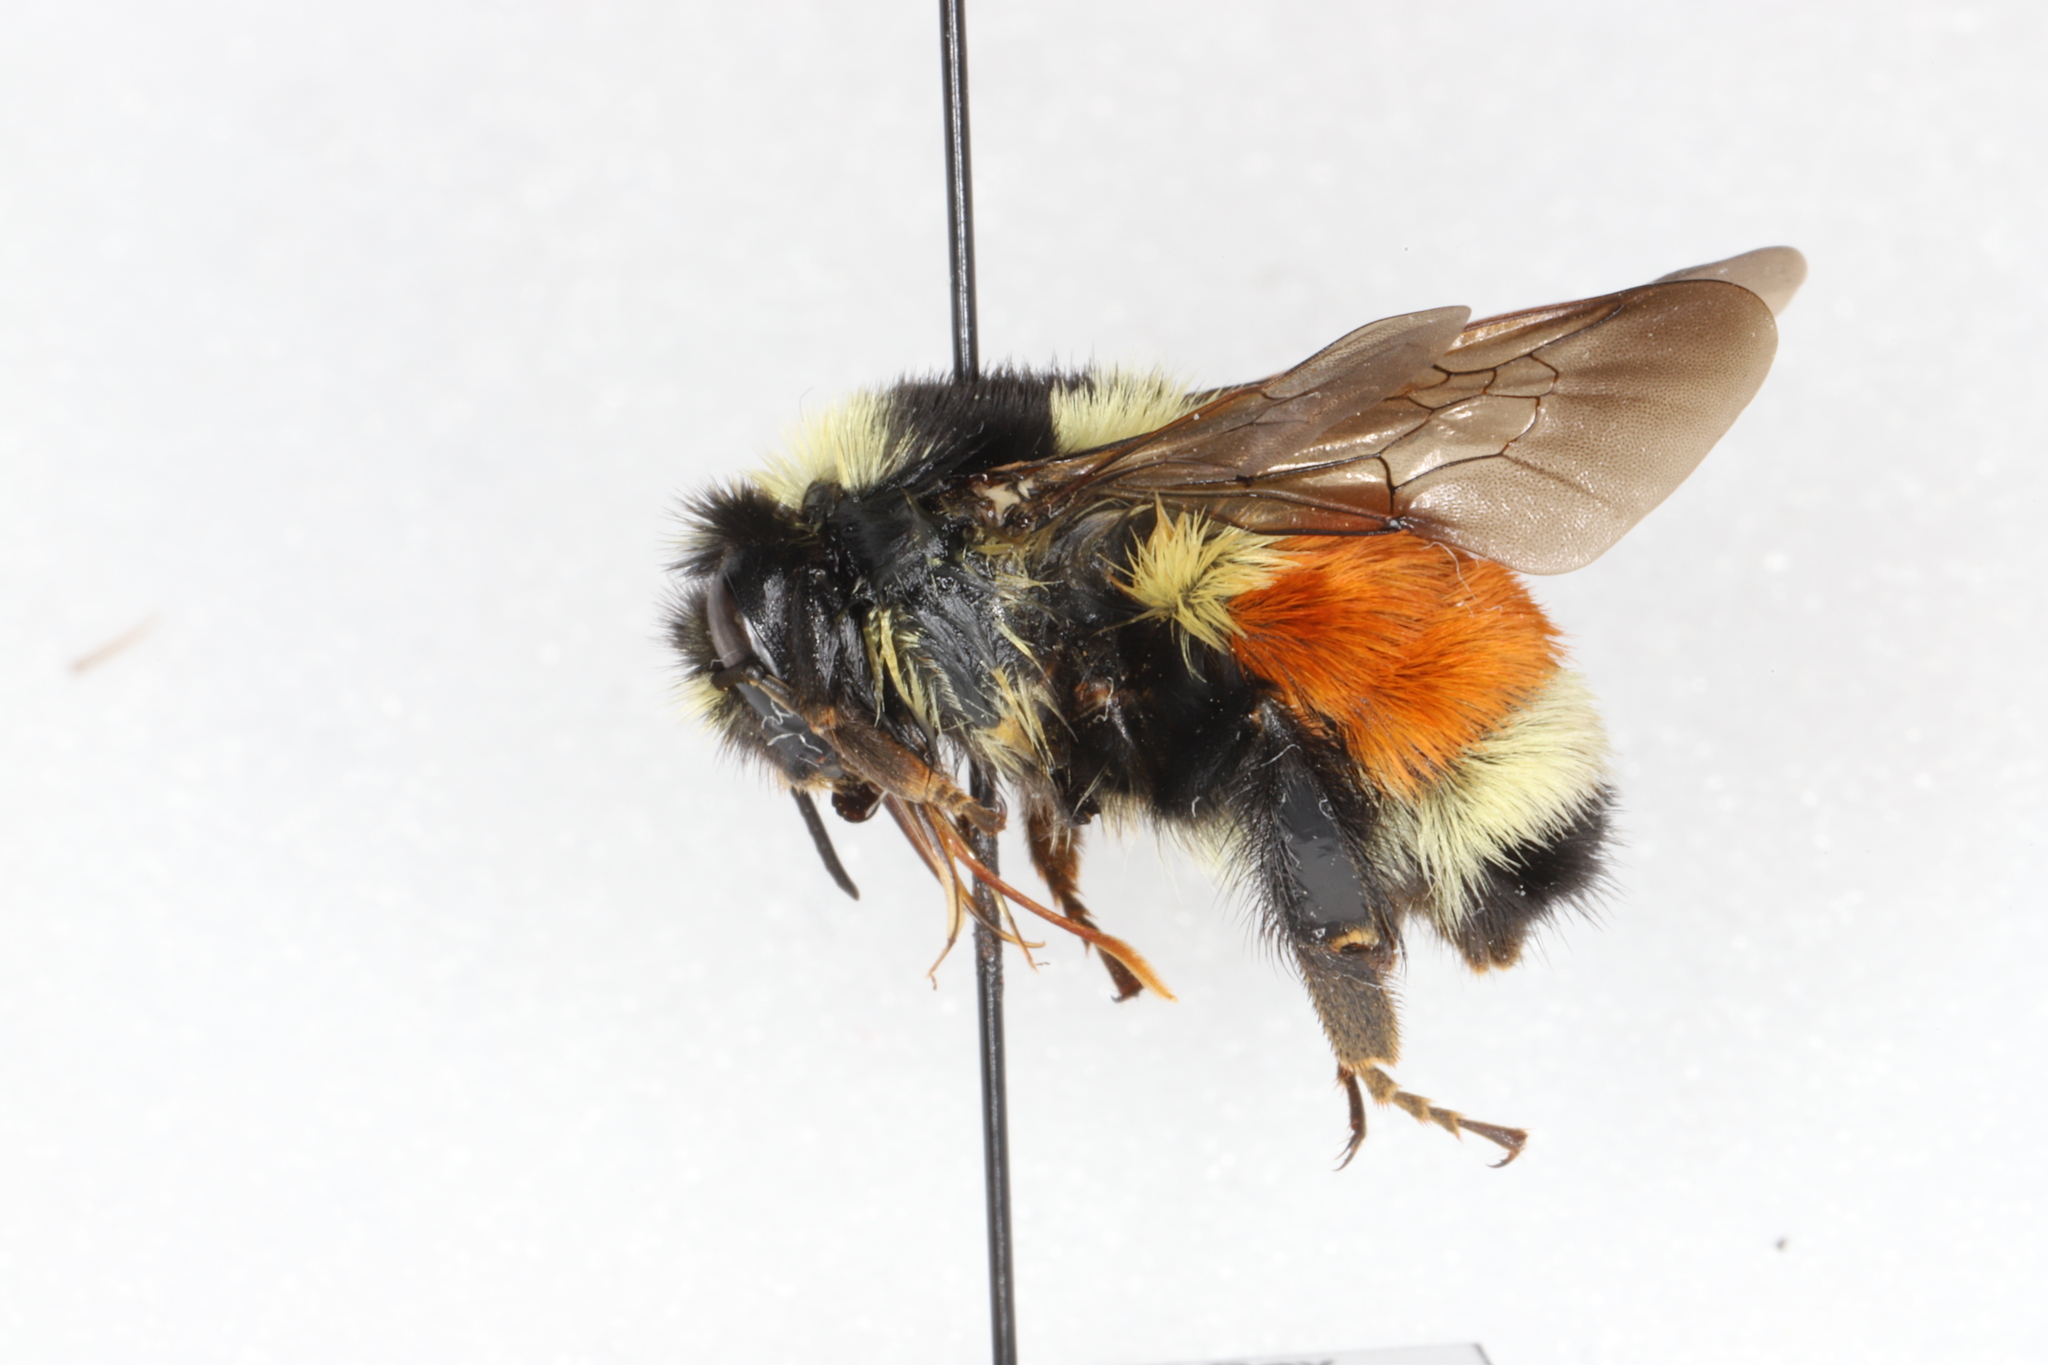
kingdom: Animalia
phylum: Arthropoda
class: Insecta
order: Hymenoptera
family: Apidae
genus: Bombus
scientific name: Bombus ternarius
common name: Tri-colored bumble bee
